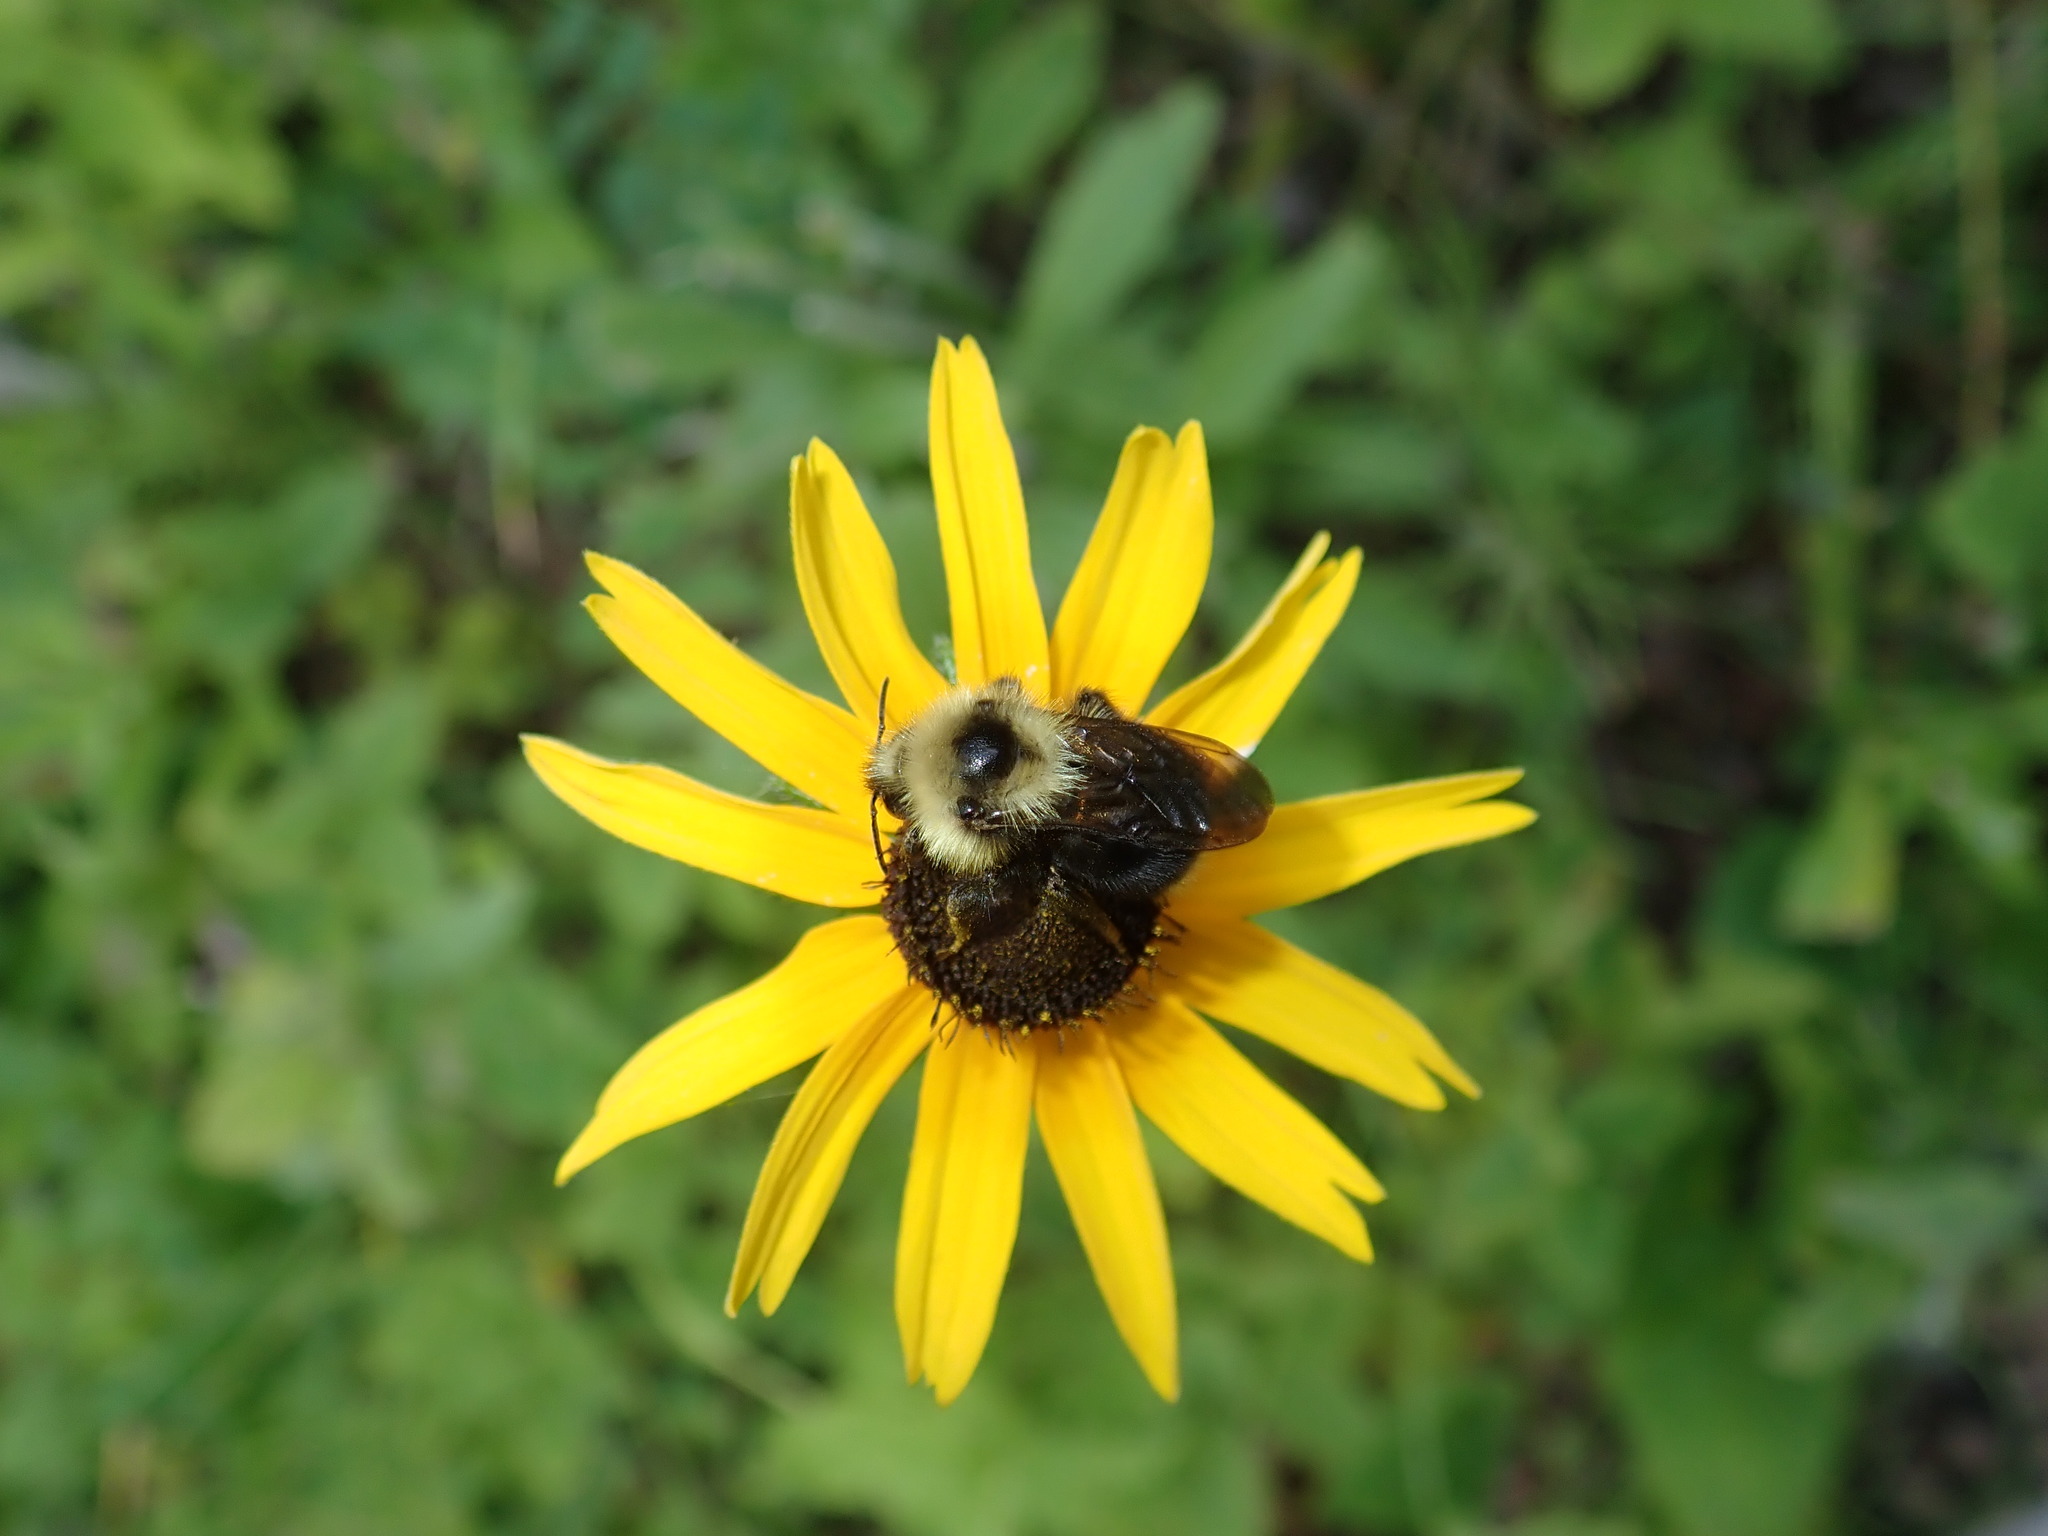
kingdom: Animalia
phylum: Arthropoda
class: Insecta
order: Hymenoptera
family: Apidae
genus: Bombus
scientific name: Bombus
